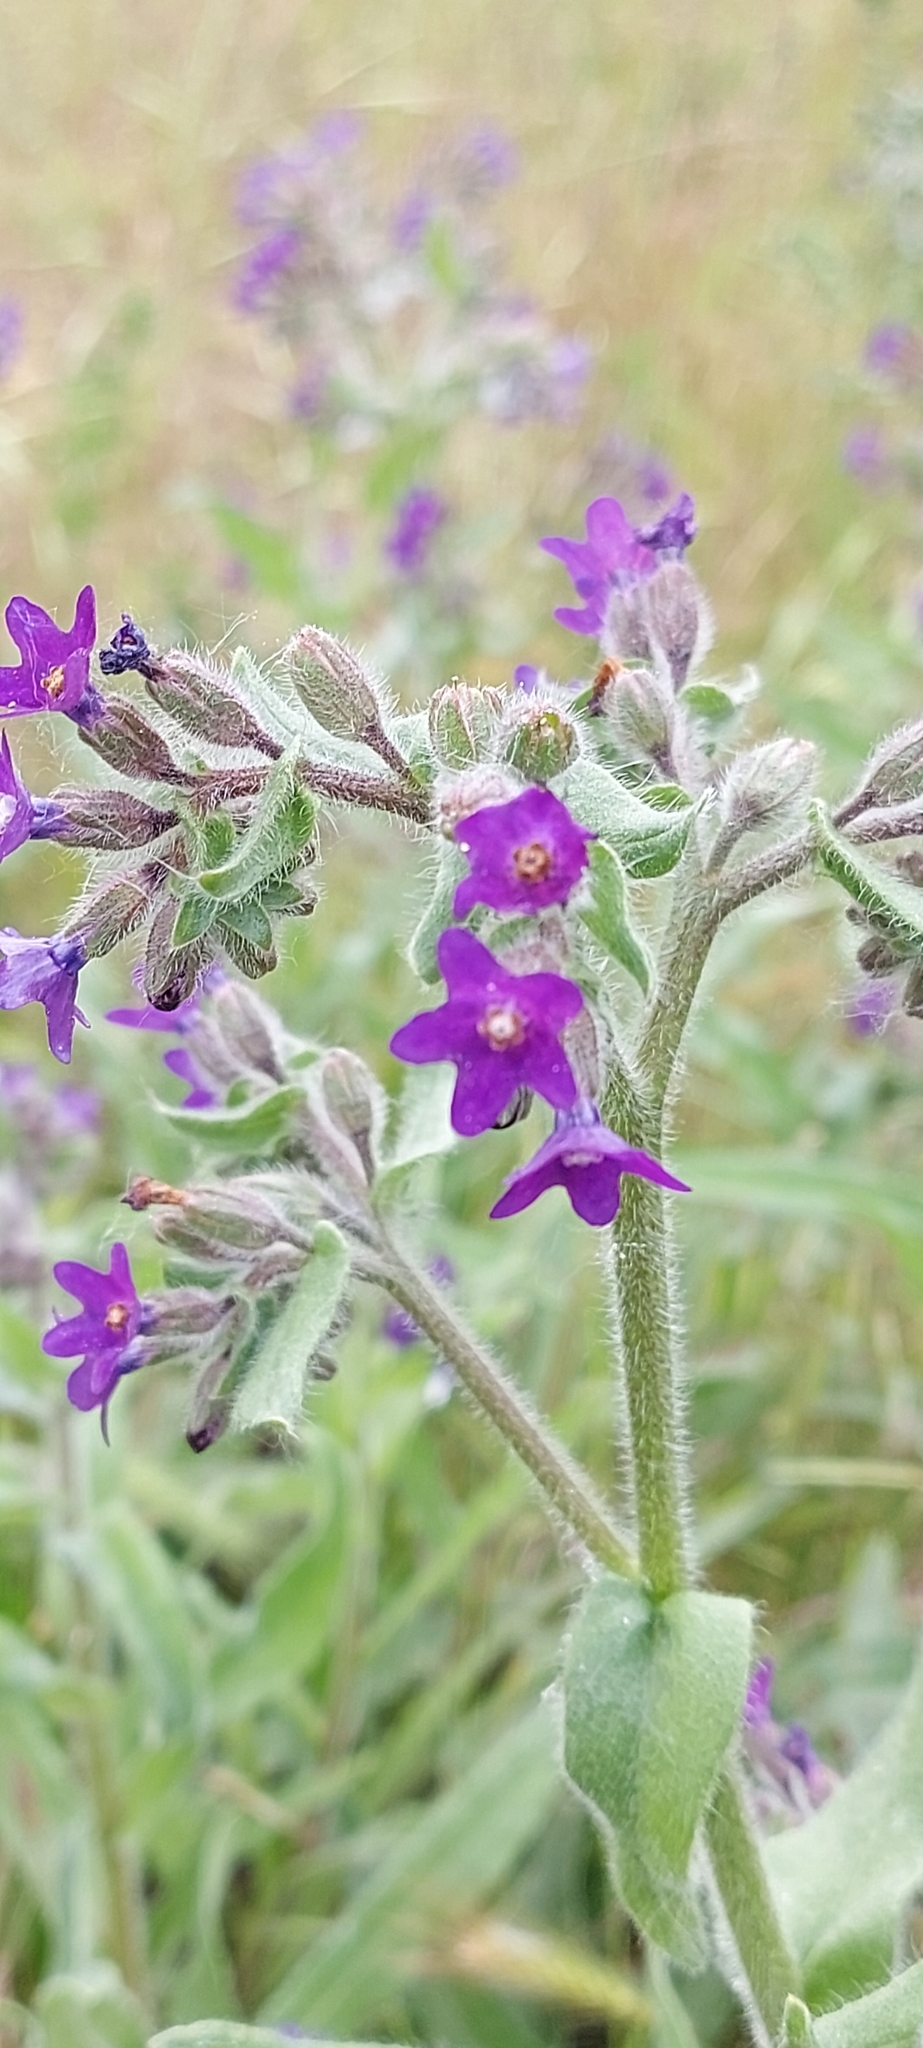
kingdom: Plantae
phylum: Tracheophyta
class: Magnoliopsida
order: Boraginales
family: Boraginaceae
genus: Anchusa
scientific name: Anchusa officinalis
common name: Alkanet
